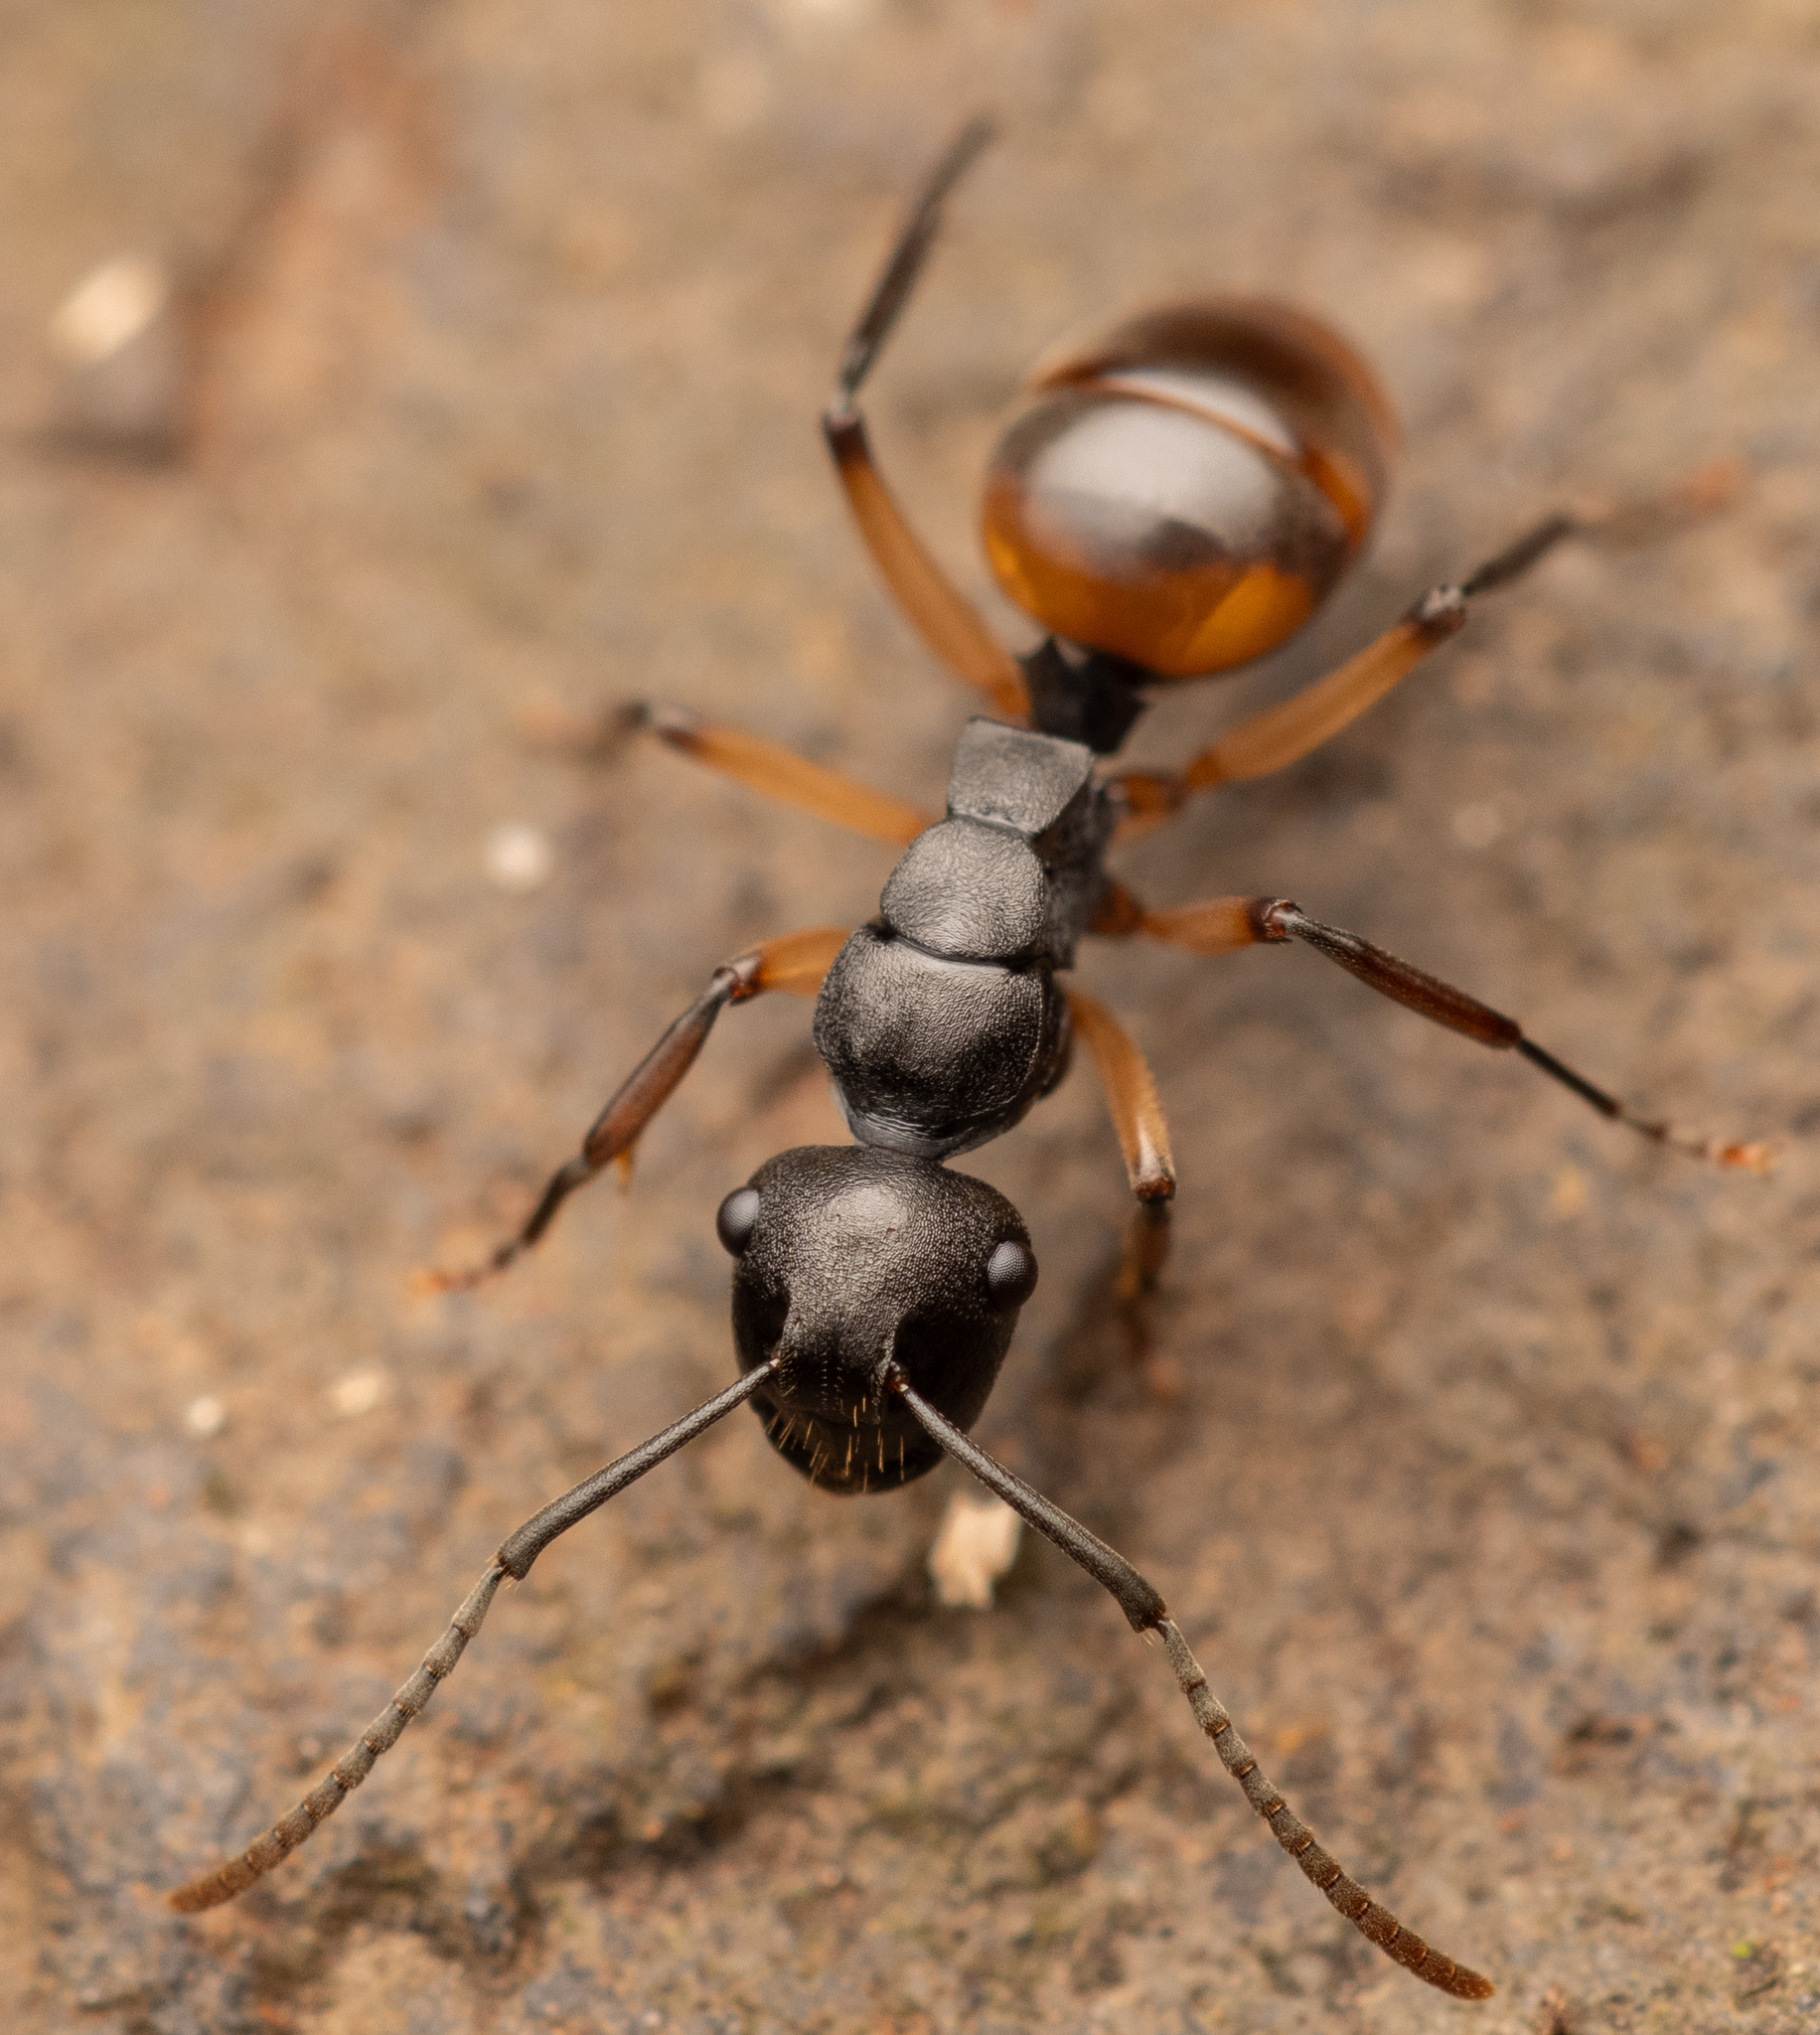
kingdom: Animalia
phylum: Arthropoda
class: Insecta
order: Hymenoptera
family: Formicidae
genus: Polyrhachis
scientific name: Polyrhachis maculata
